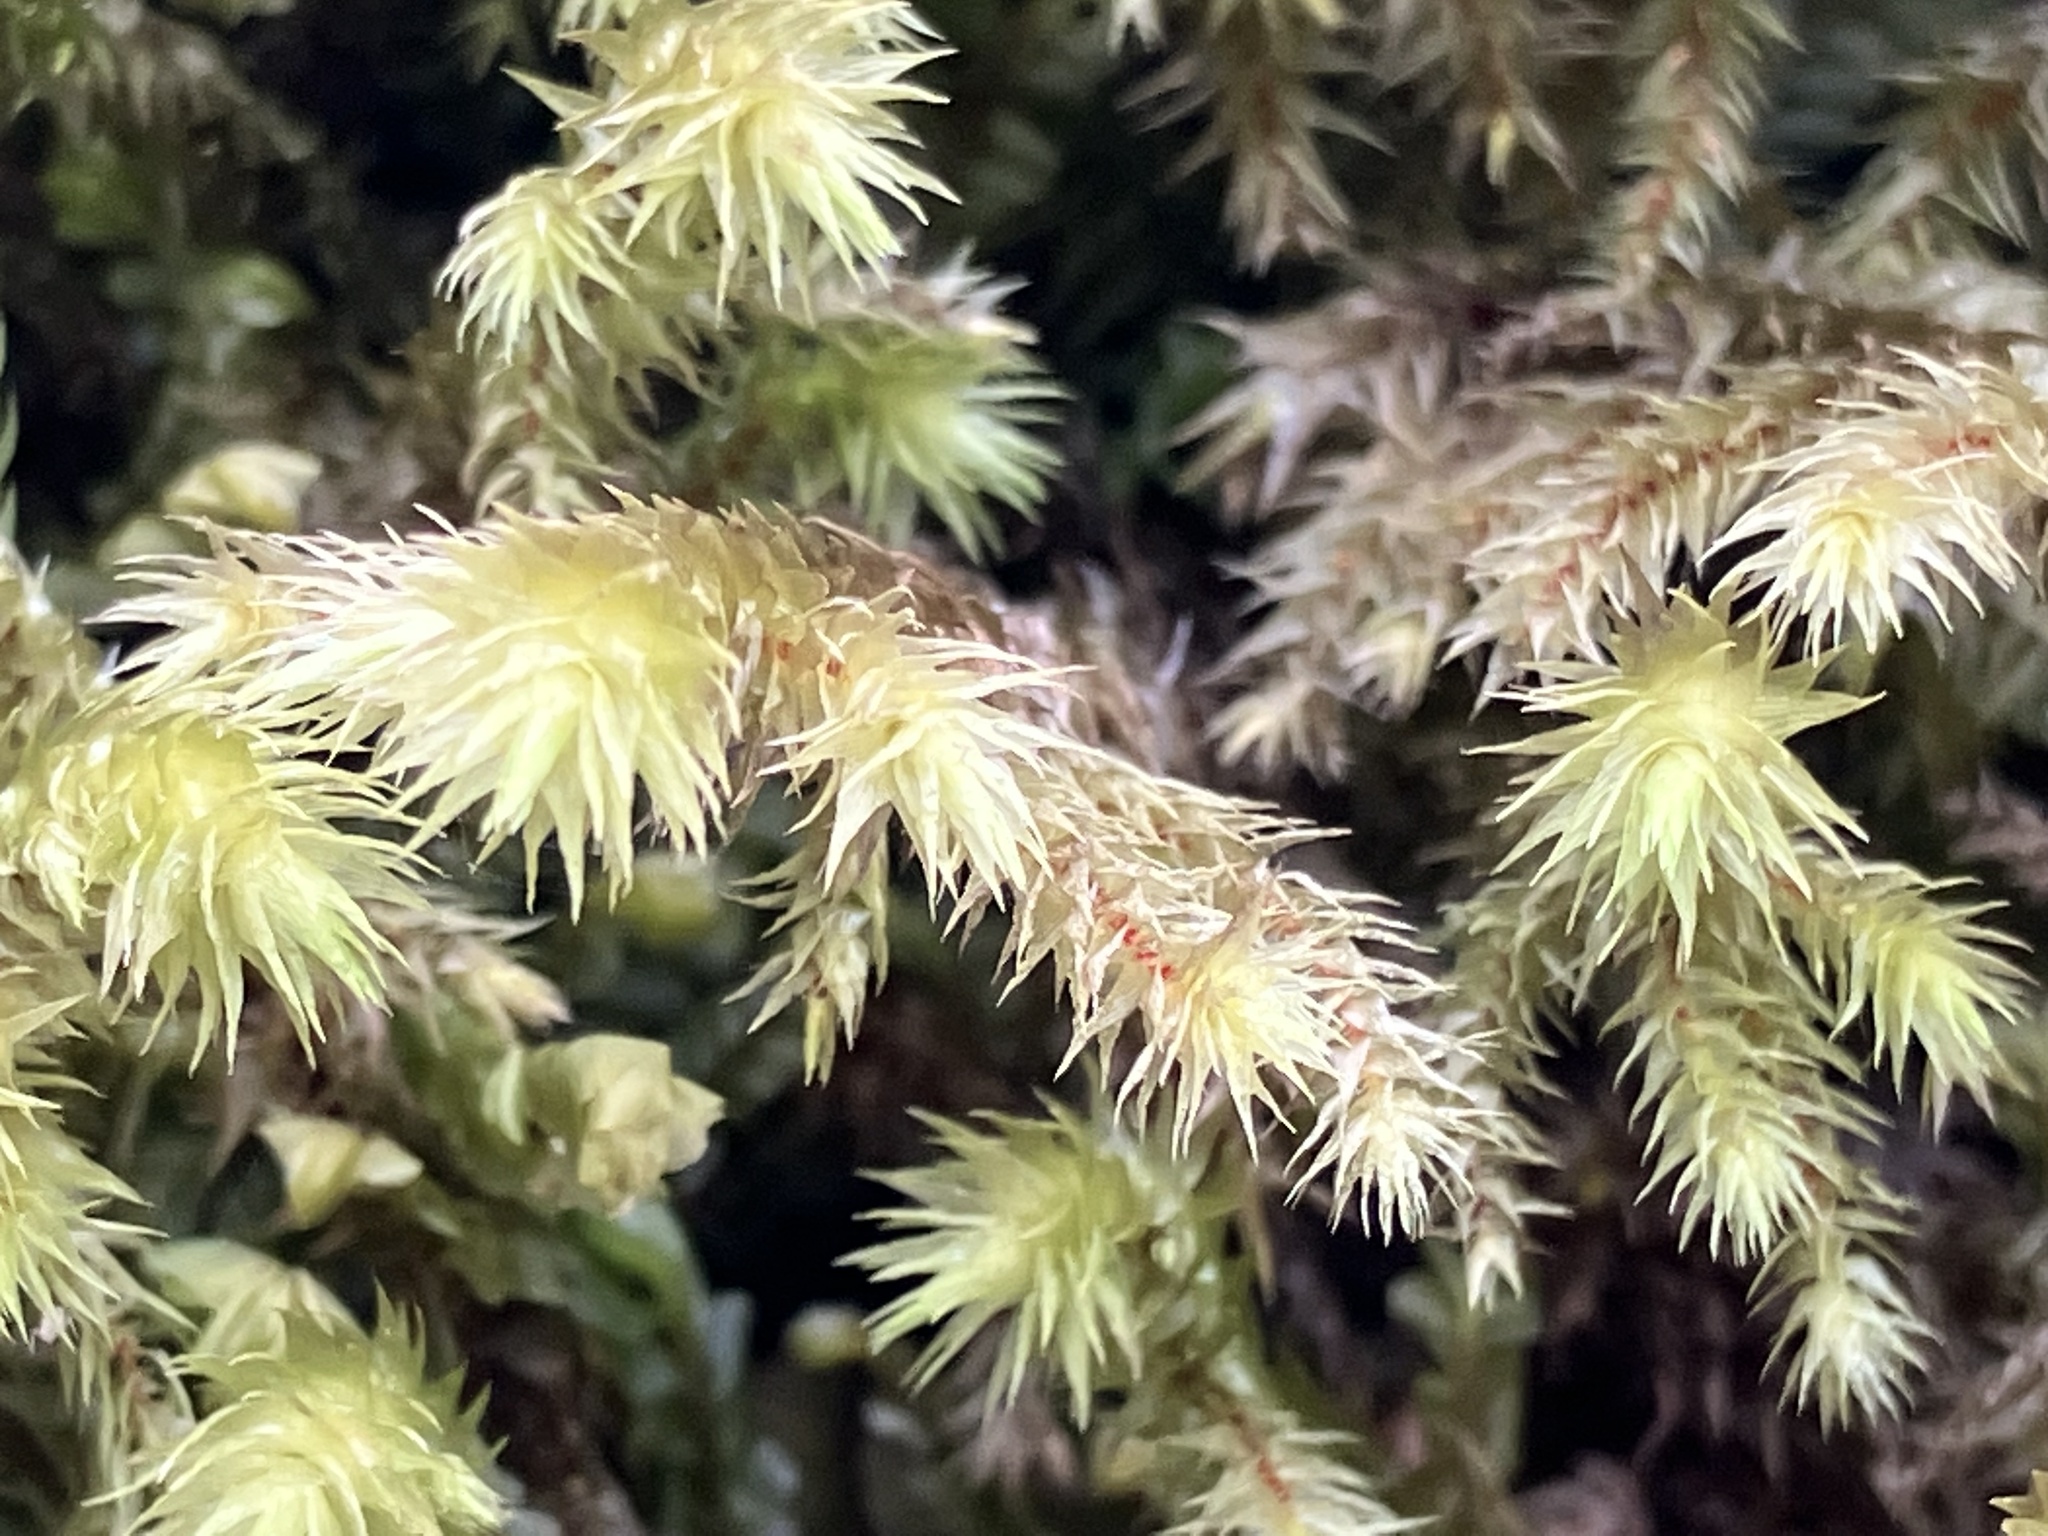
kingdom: Plantae
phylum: Bryophyta
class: Bryopsida
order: Hypnales
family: Hylocomiaceae
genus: Hylocomiadelphus
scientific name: Hylocomiadelphus triquetrus
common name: Rough goose neck moss
